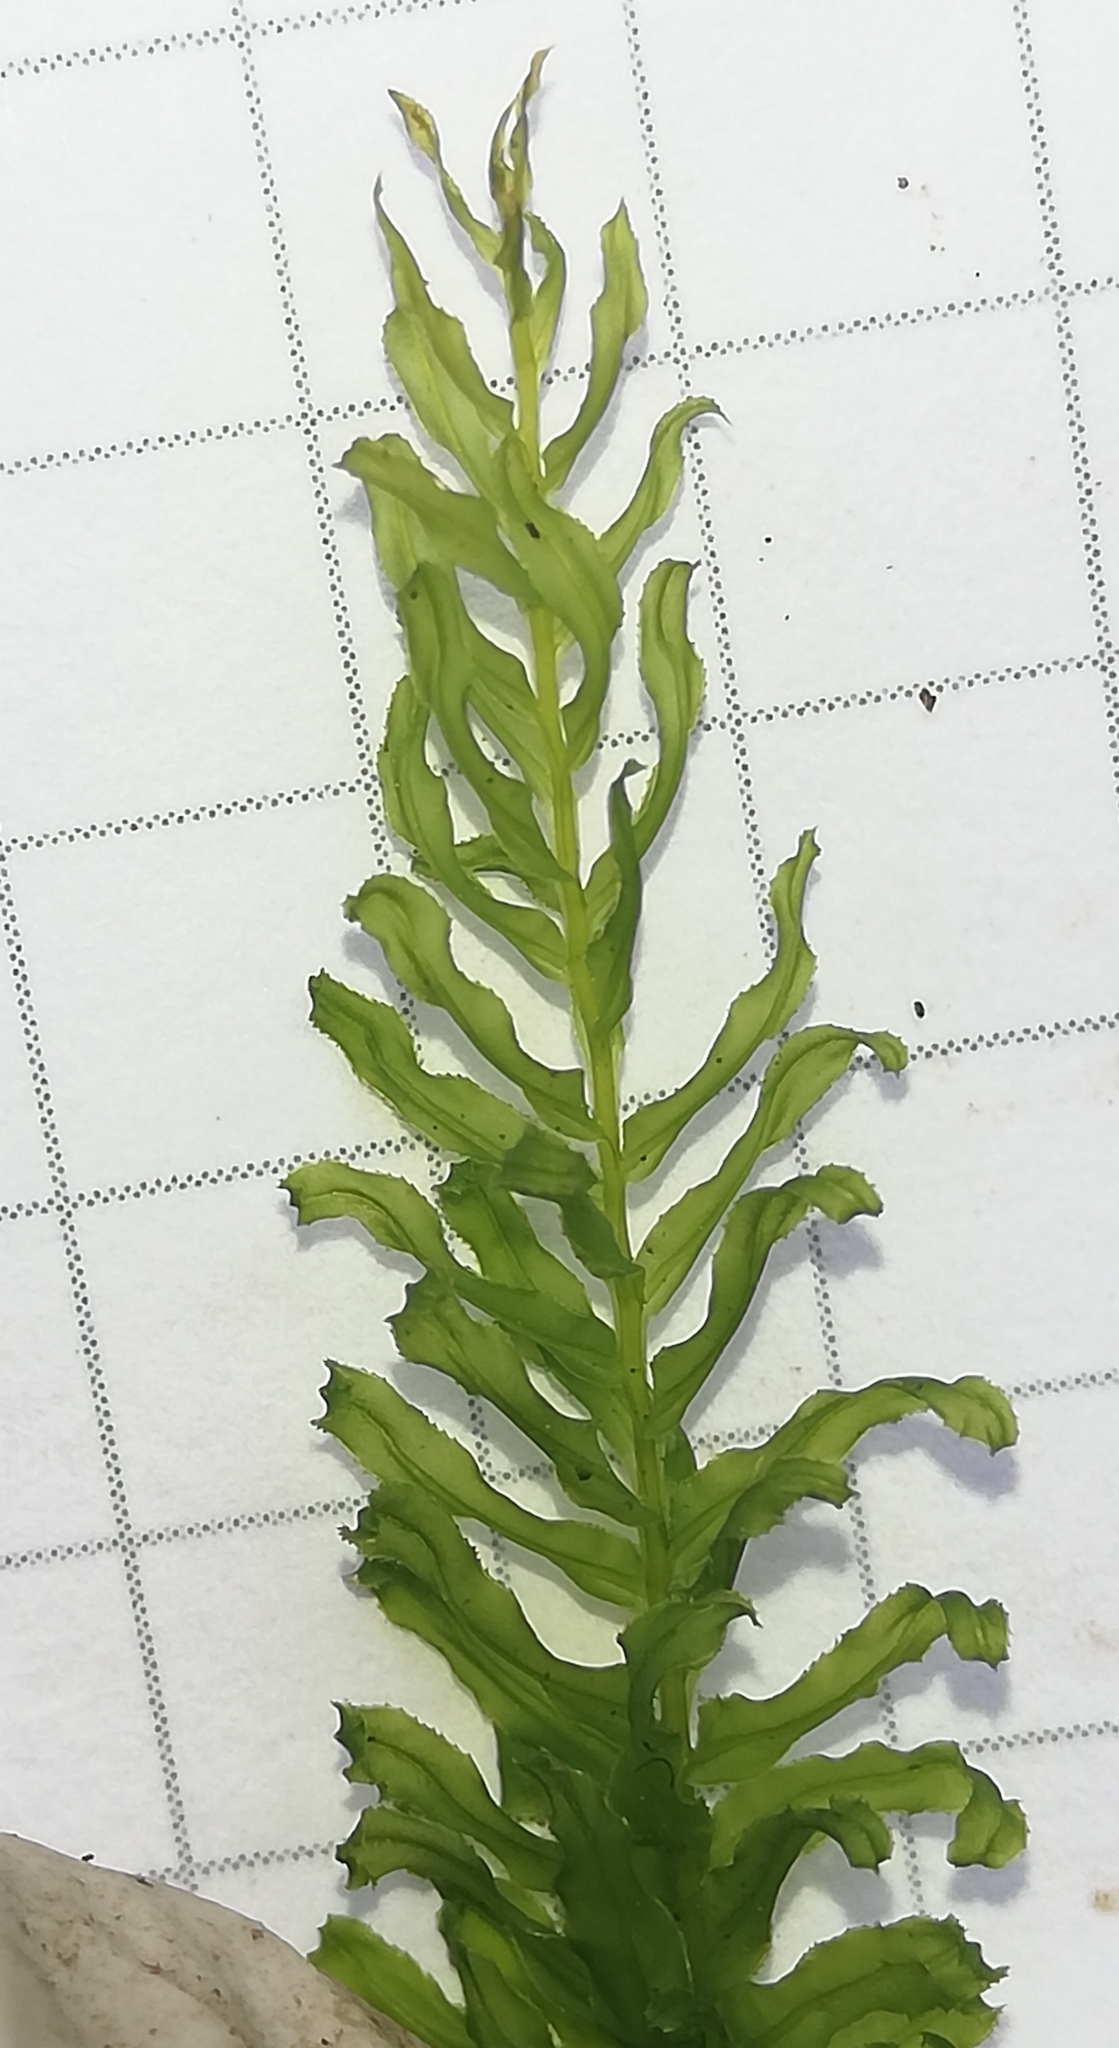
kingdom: Plantae
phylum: Bryophyta
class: Bryopsida
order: Bryales
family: Mniaceae
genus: Plagiomnium
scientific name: Plagiomnium undulatum
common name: Hart's-tongue thyme-moss
